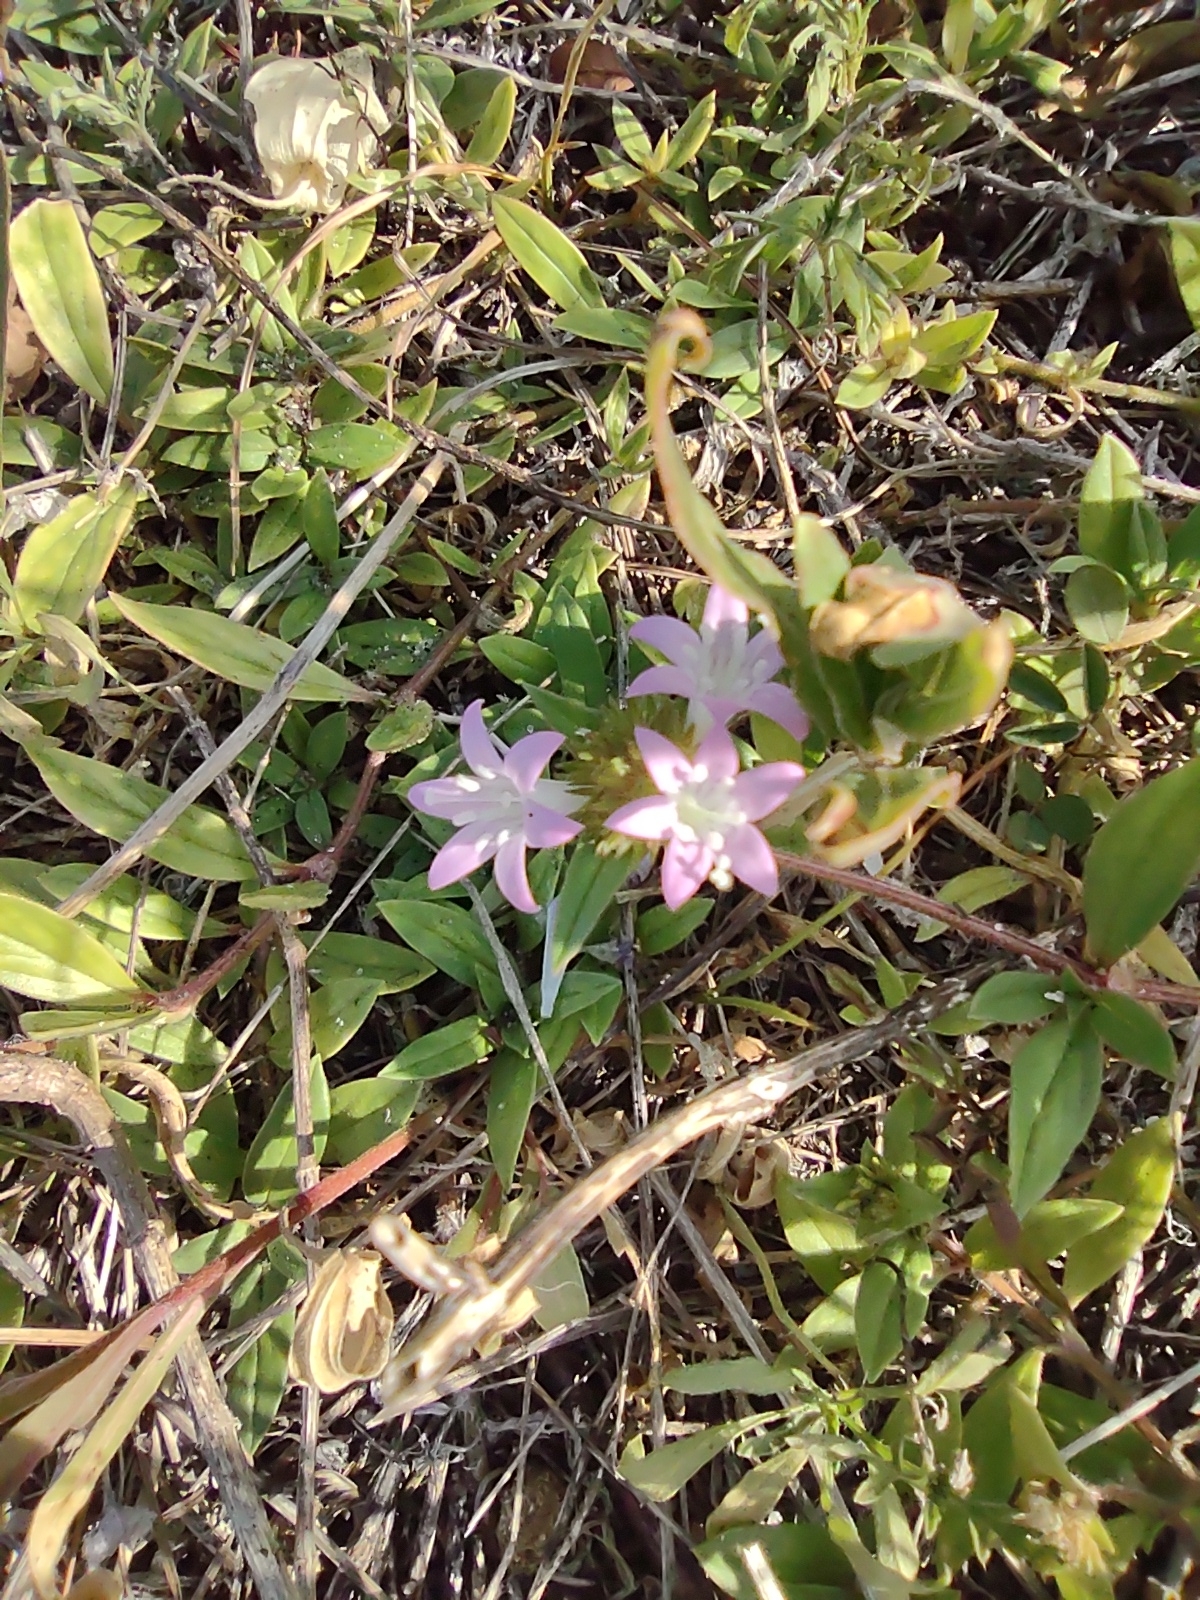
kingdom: Plantae
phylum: Tracheophyta
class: Magnoliopsida
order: Gentianales
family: Rubiaceae
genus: Richardia
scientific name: Richardia grandiflora
